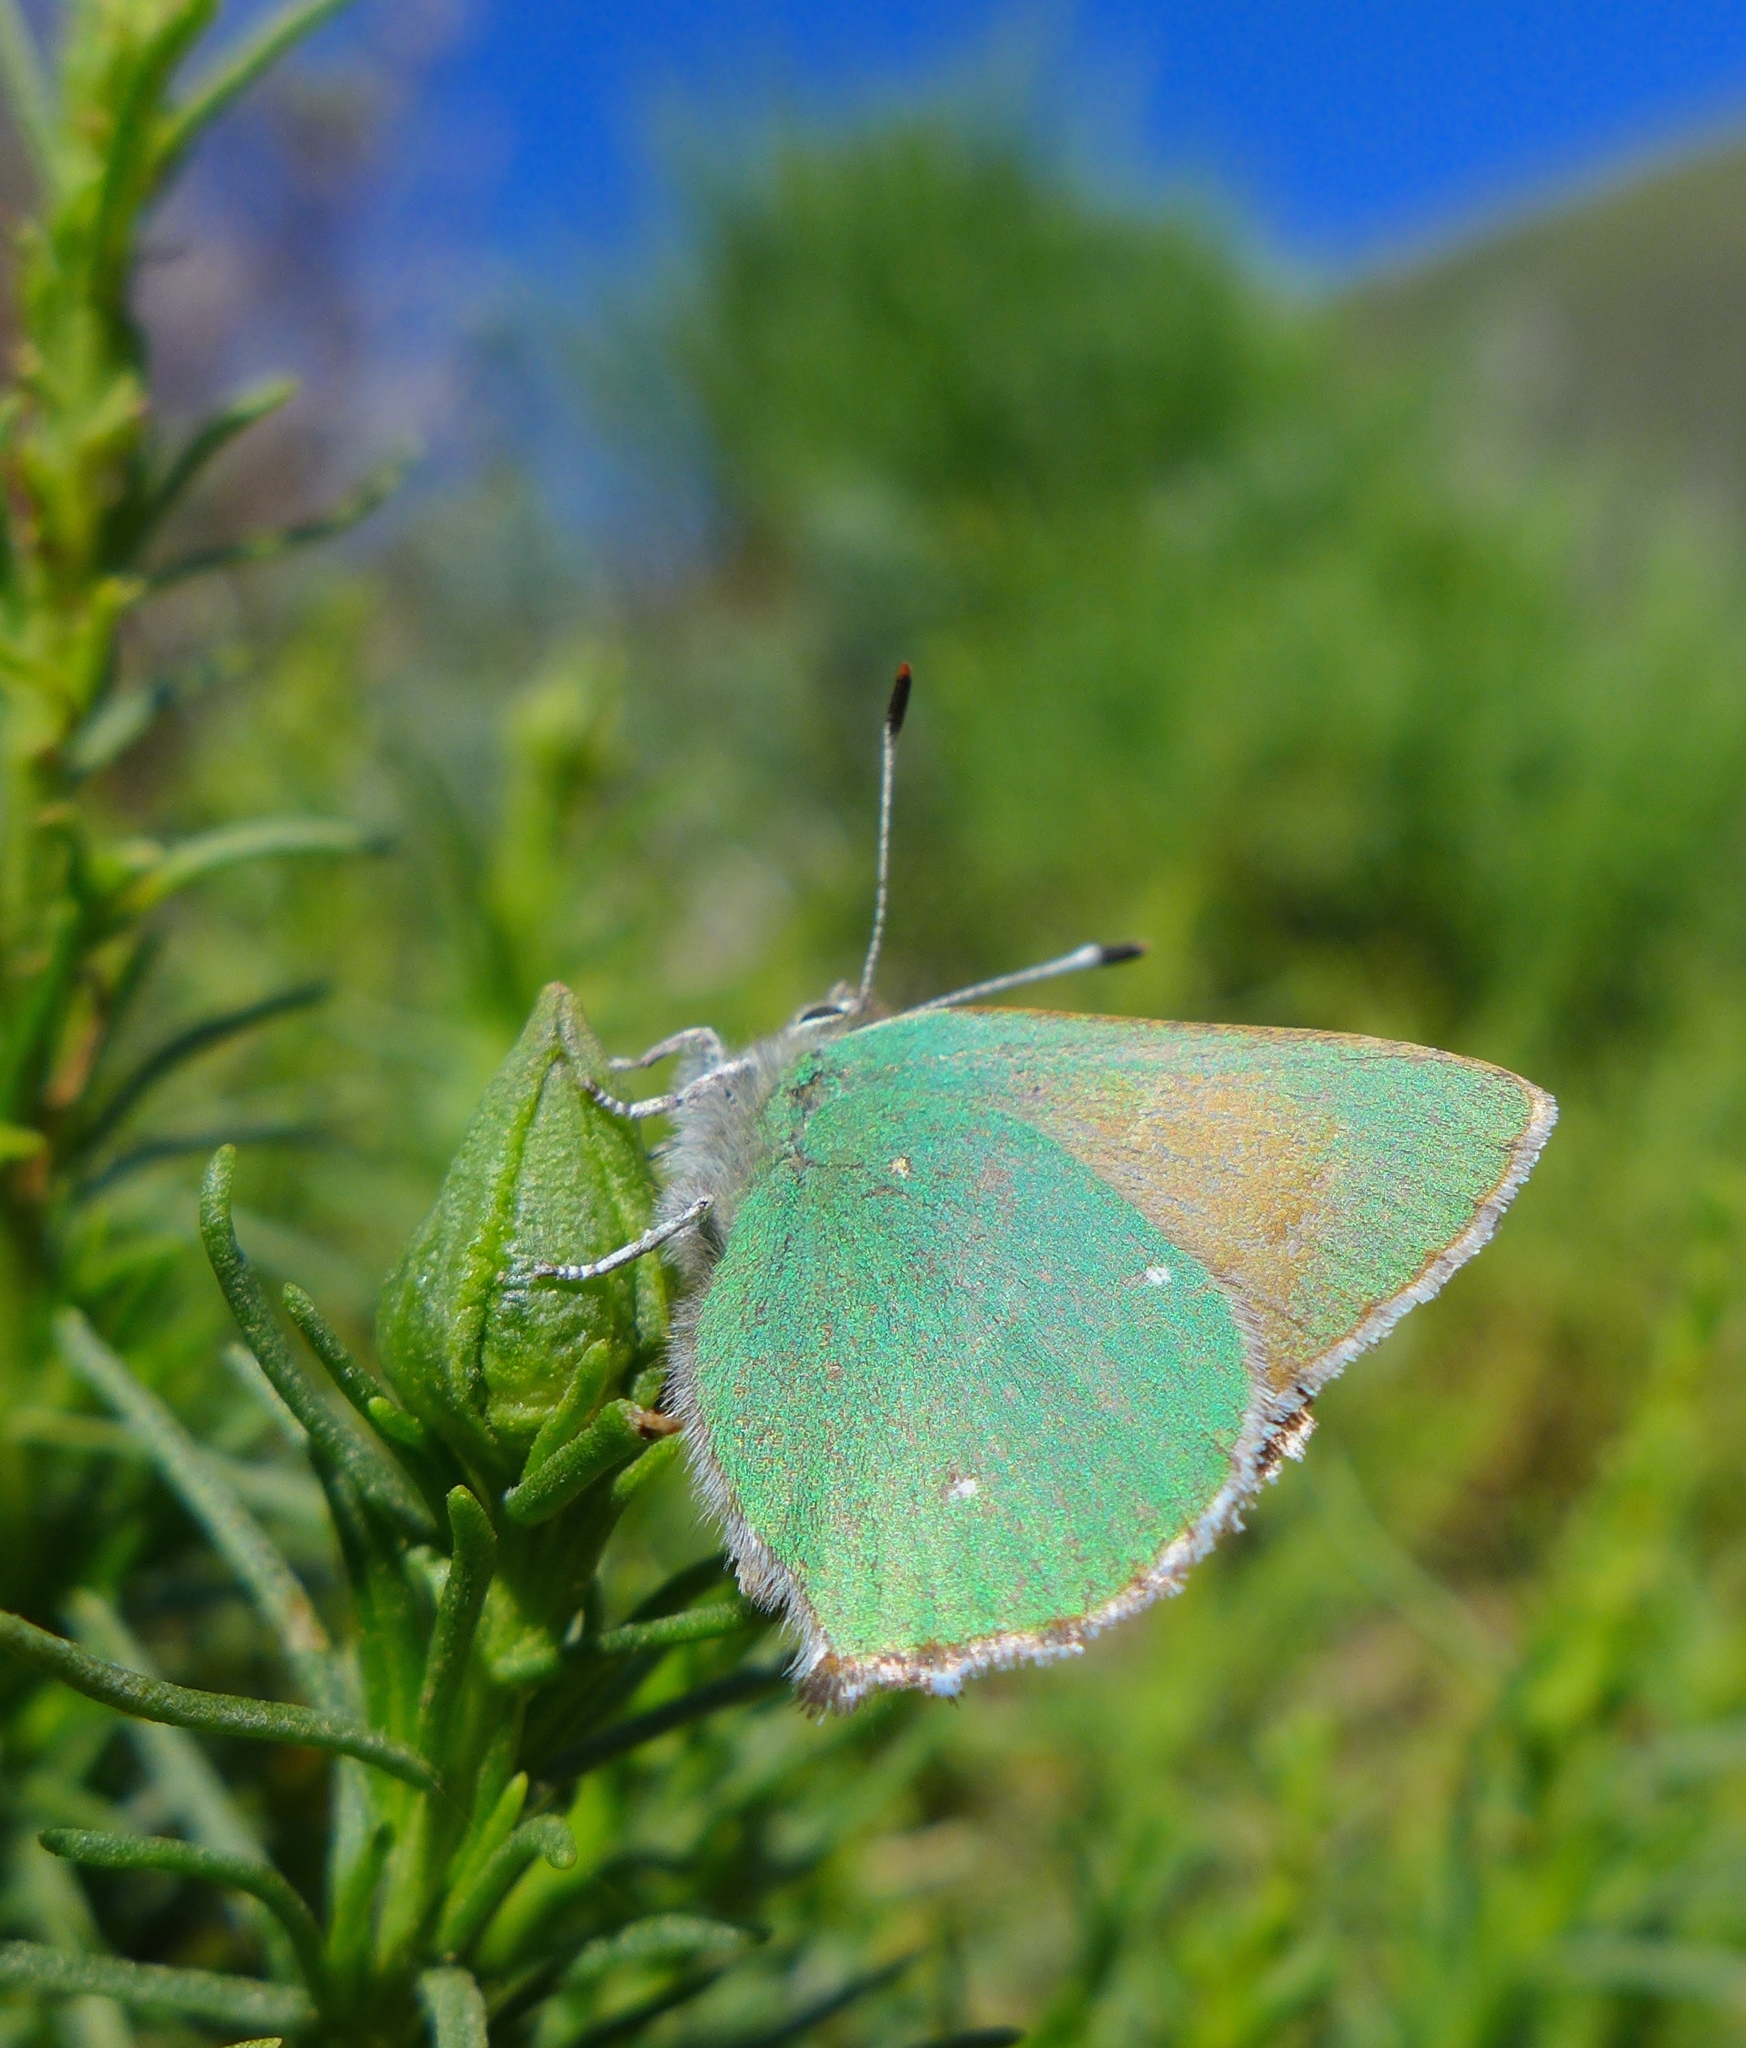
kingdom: Animalia
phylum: Arthropoda
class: Insecta
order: Lepidoptera
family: Lycaenidae
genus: Callophrys
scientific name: Callophrys dumetorum
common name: Bramble hairstreak
